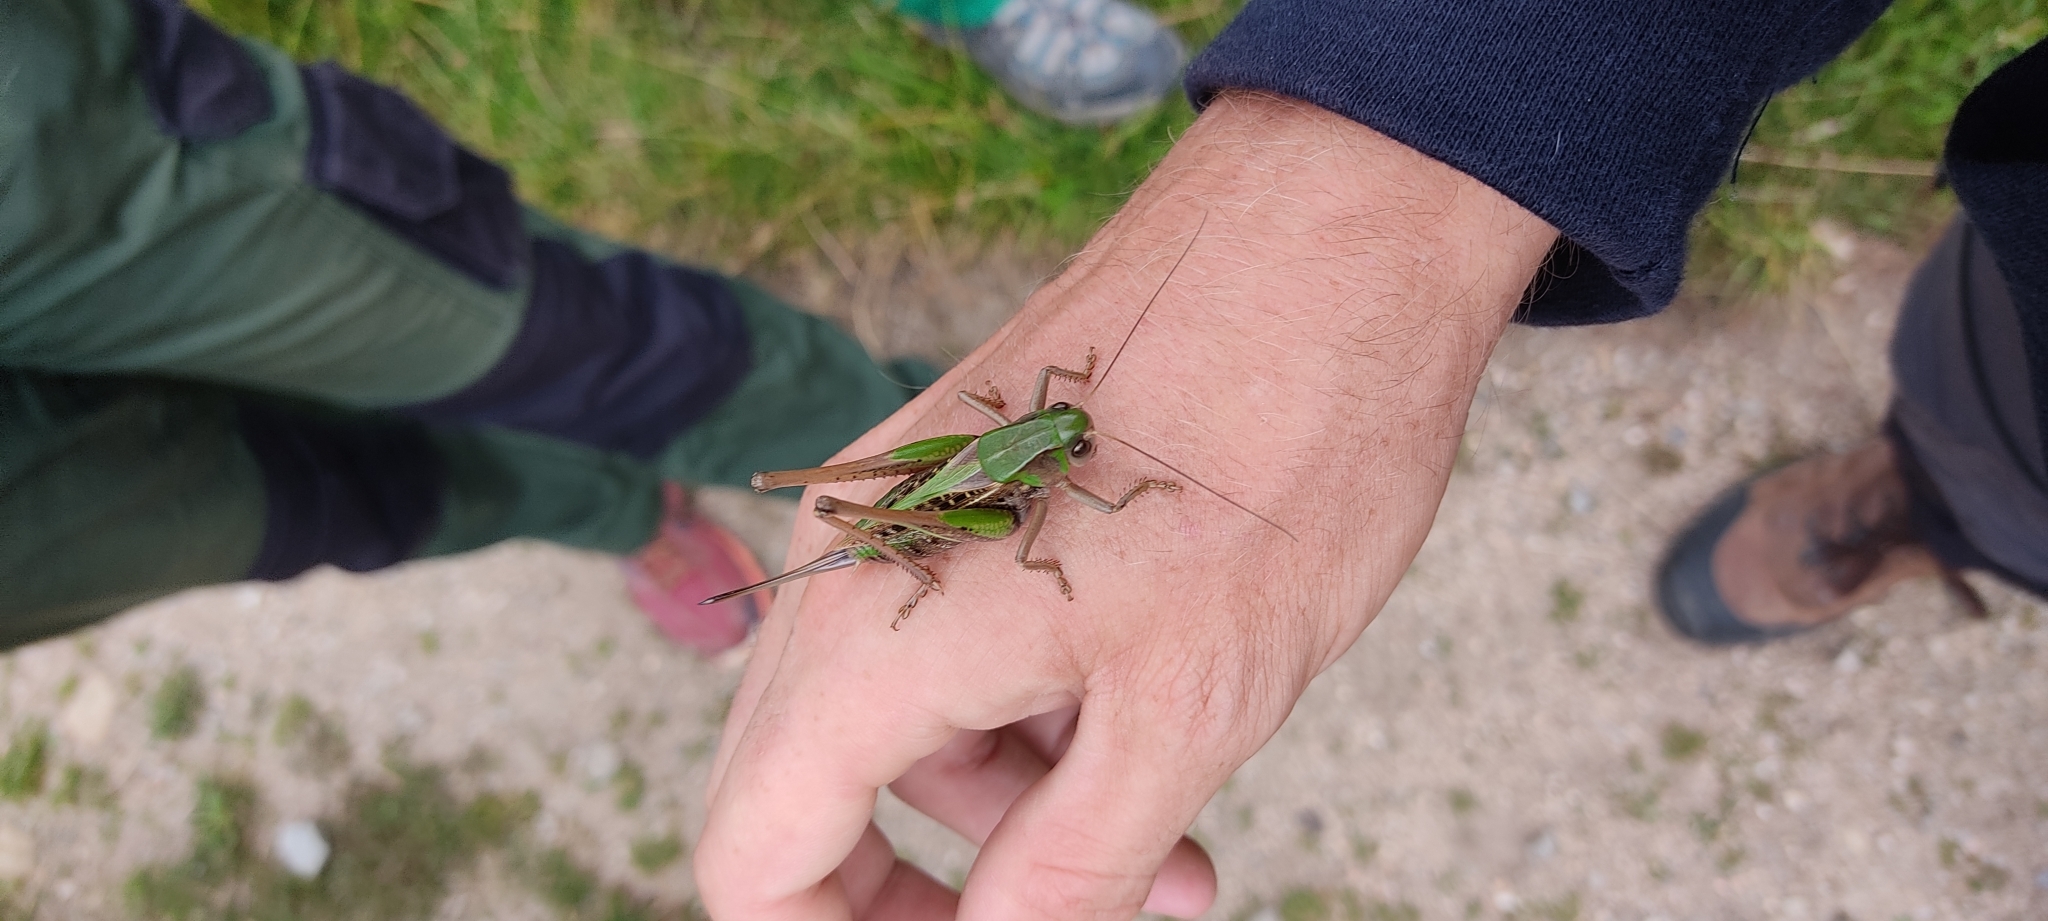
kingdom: Animalia
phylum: Arthropoda
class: Insecta
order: Orthoptera
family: Tettigoniidae
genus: Decticus
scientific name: Decticus verrucivorus
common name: Wart-biter
